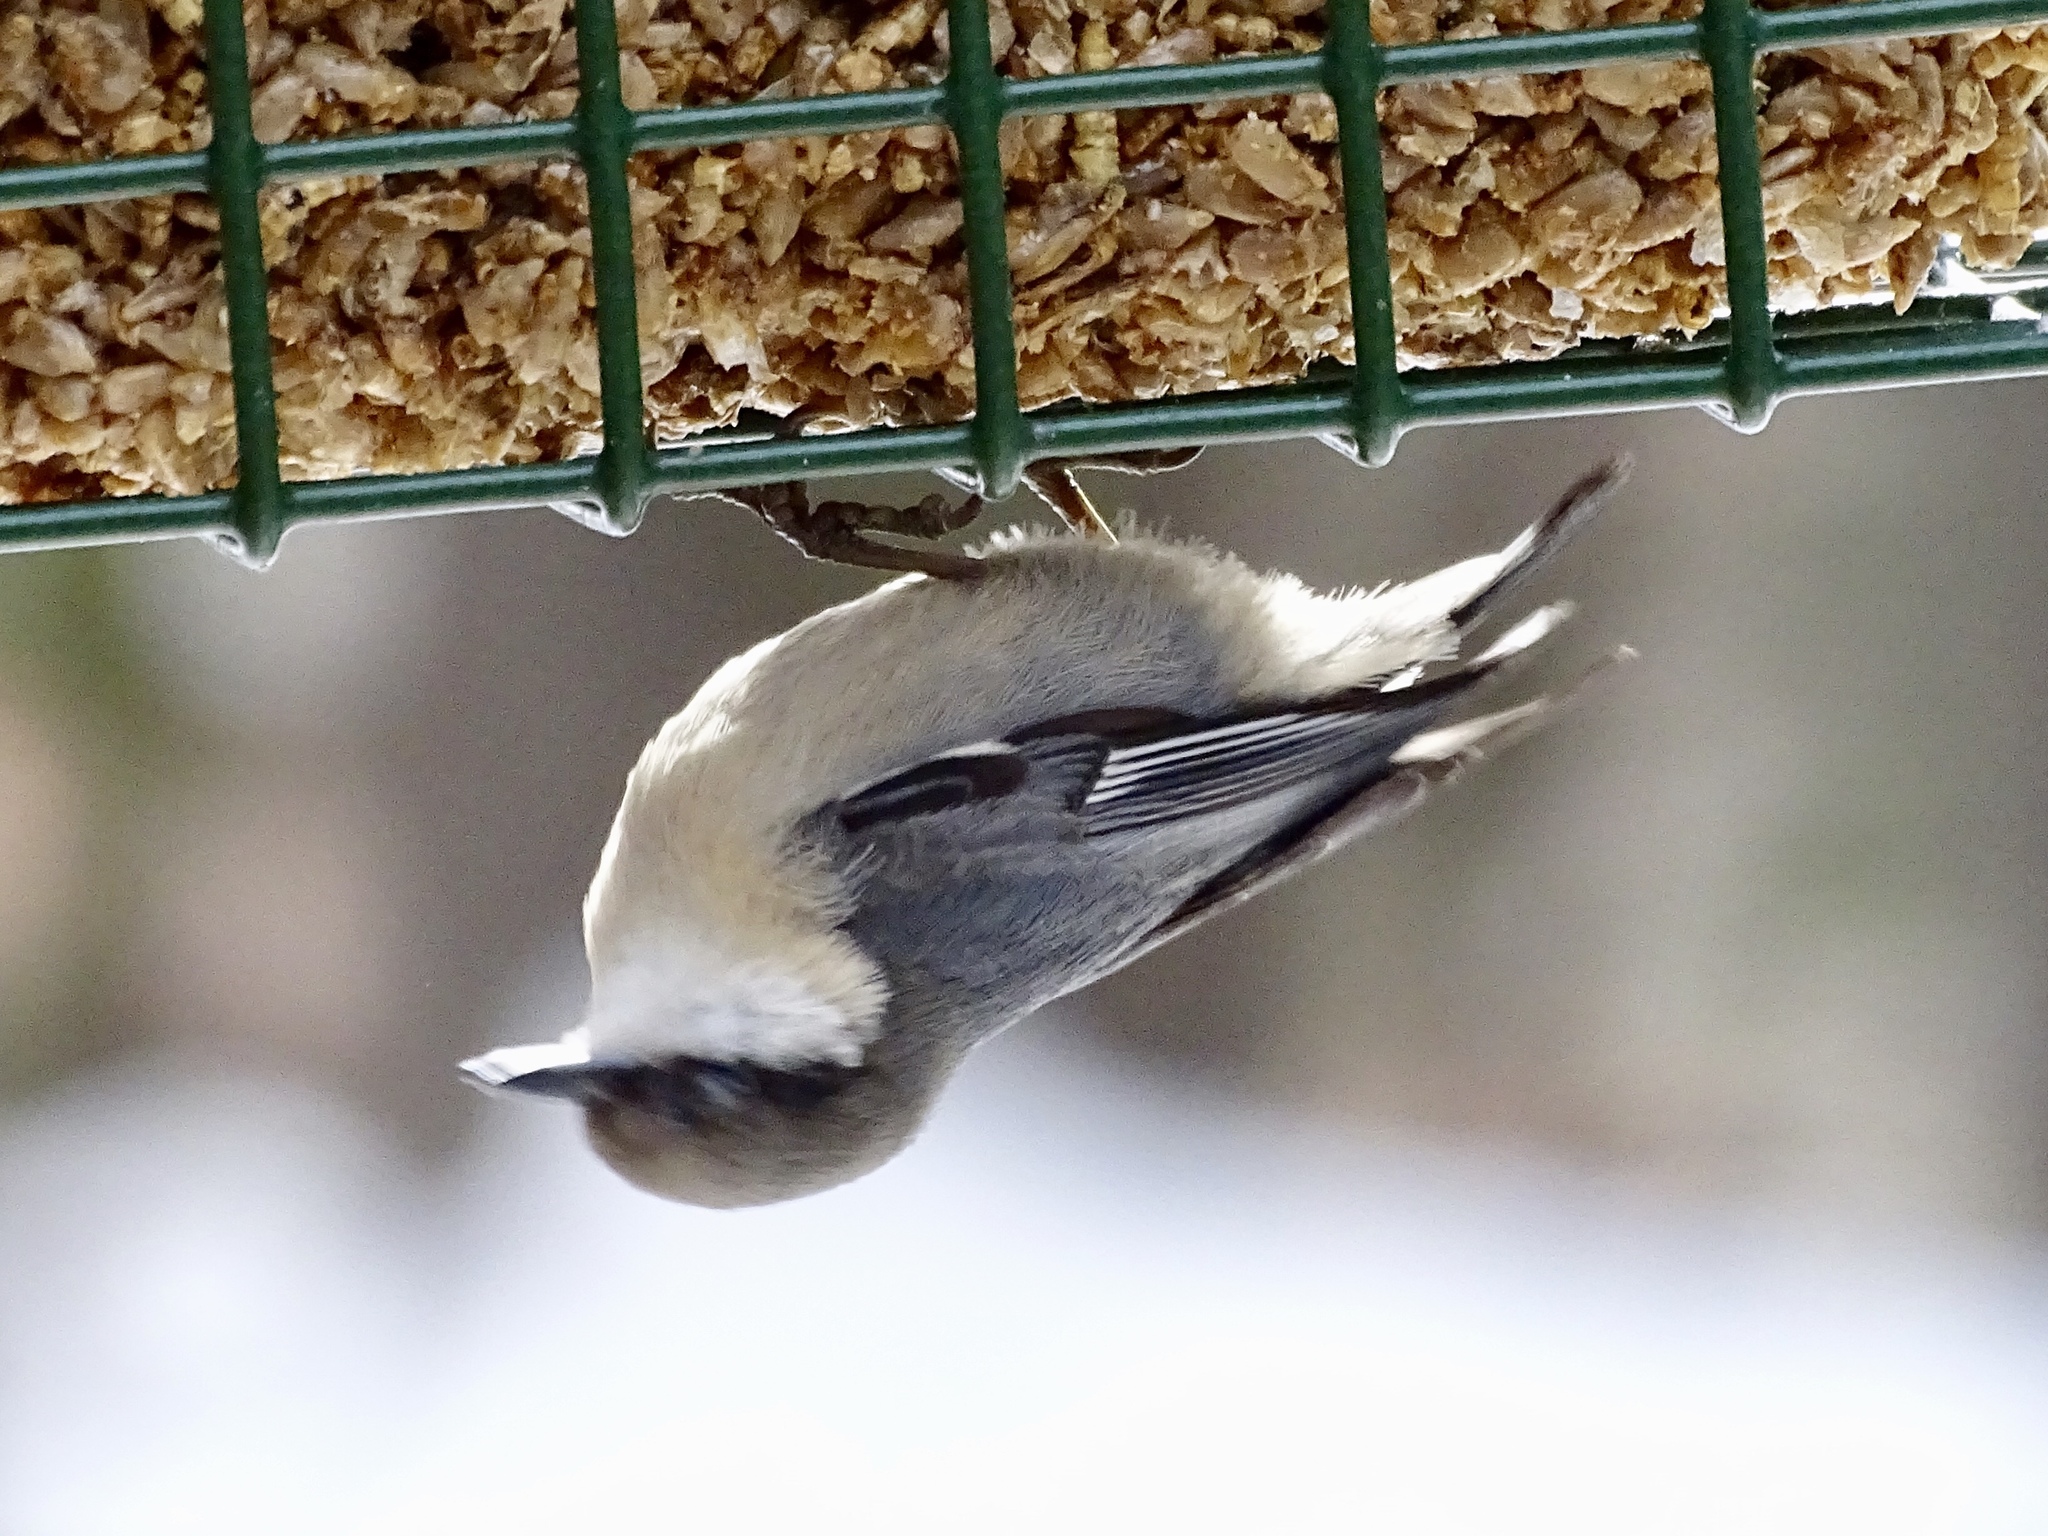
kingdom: Animalia
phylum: Chordata
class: Aves
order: Passeriformes
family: Sittidae
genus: Sitta
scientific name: Sitta pygmaea
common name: Pygmy nuthatch
